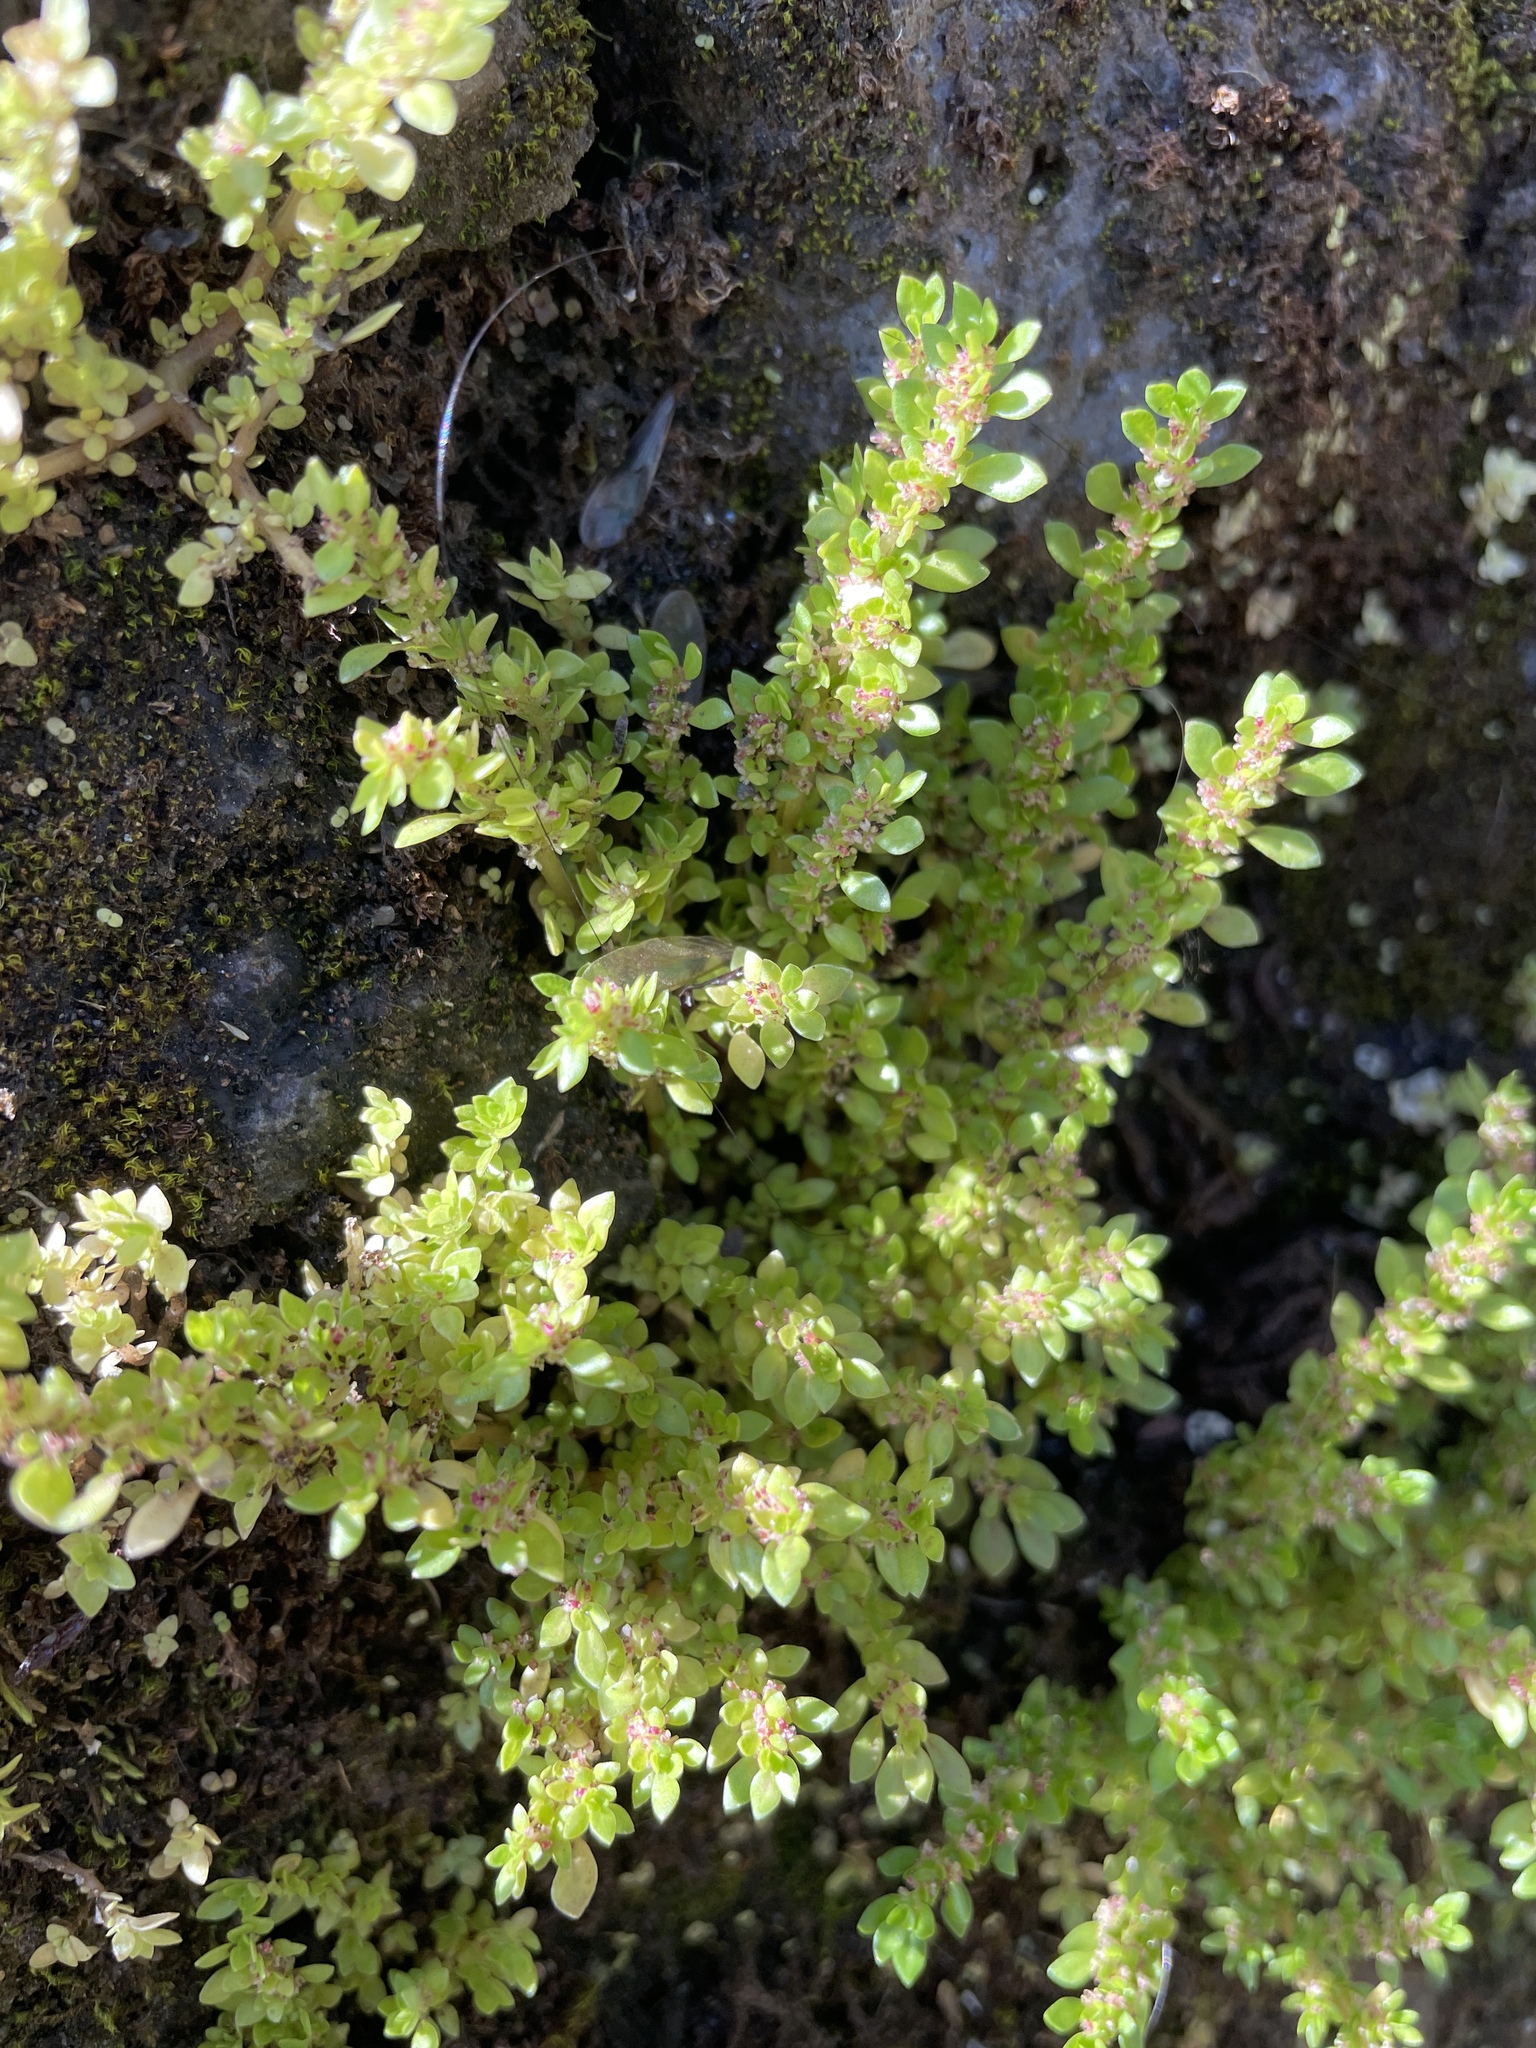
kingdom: Plantae
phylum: Tracheophyta
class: Magnoliopsida
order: Rosales
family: Urticaceae
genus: Pilea
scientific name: Pilea microphylla
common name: Artillery-plant
